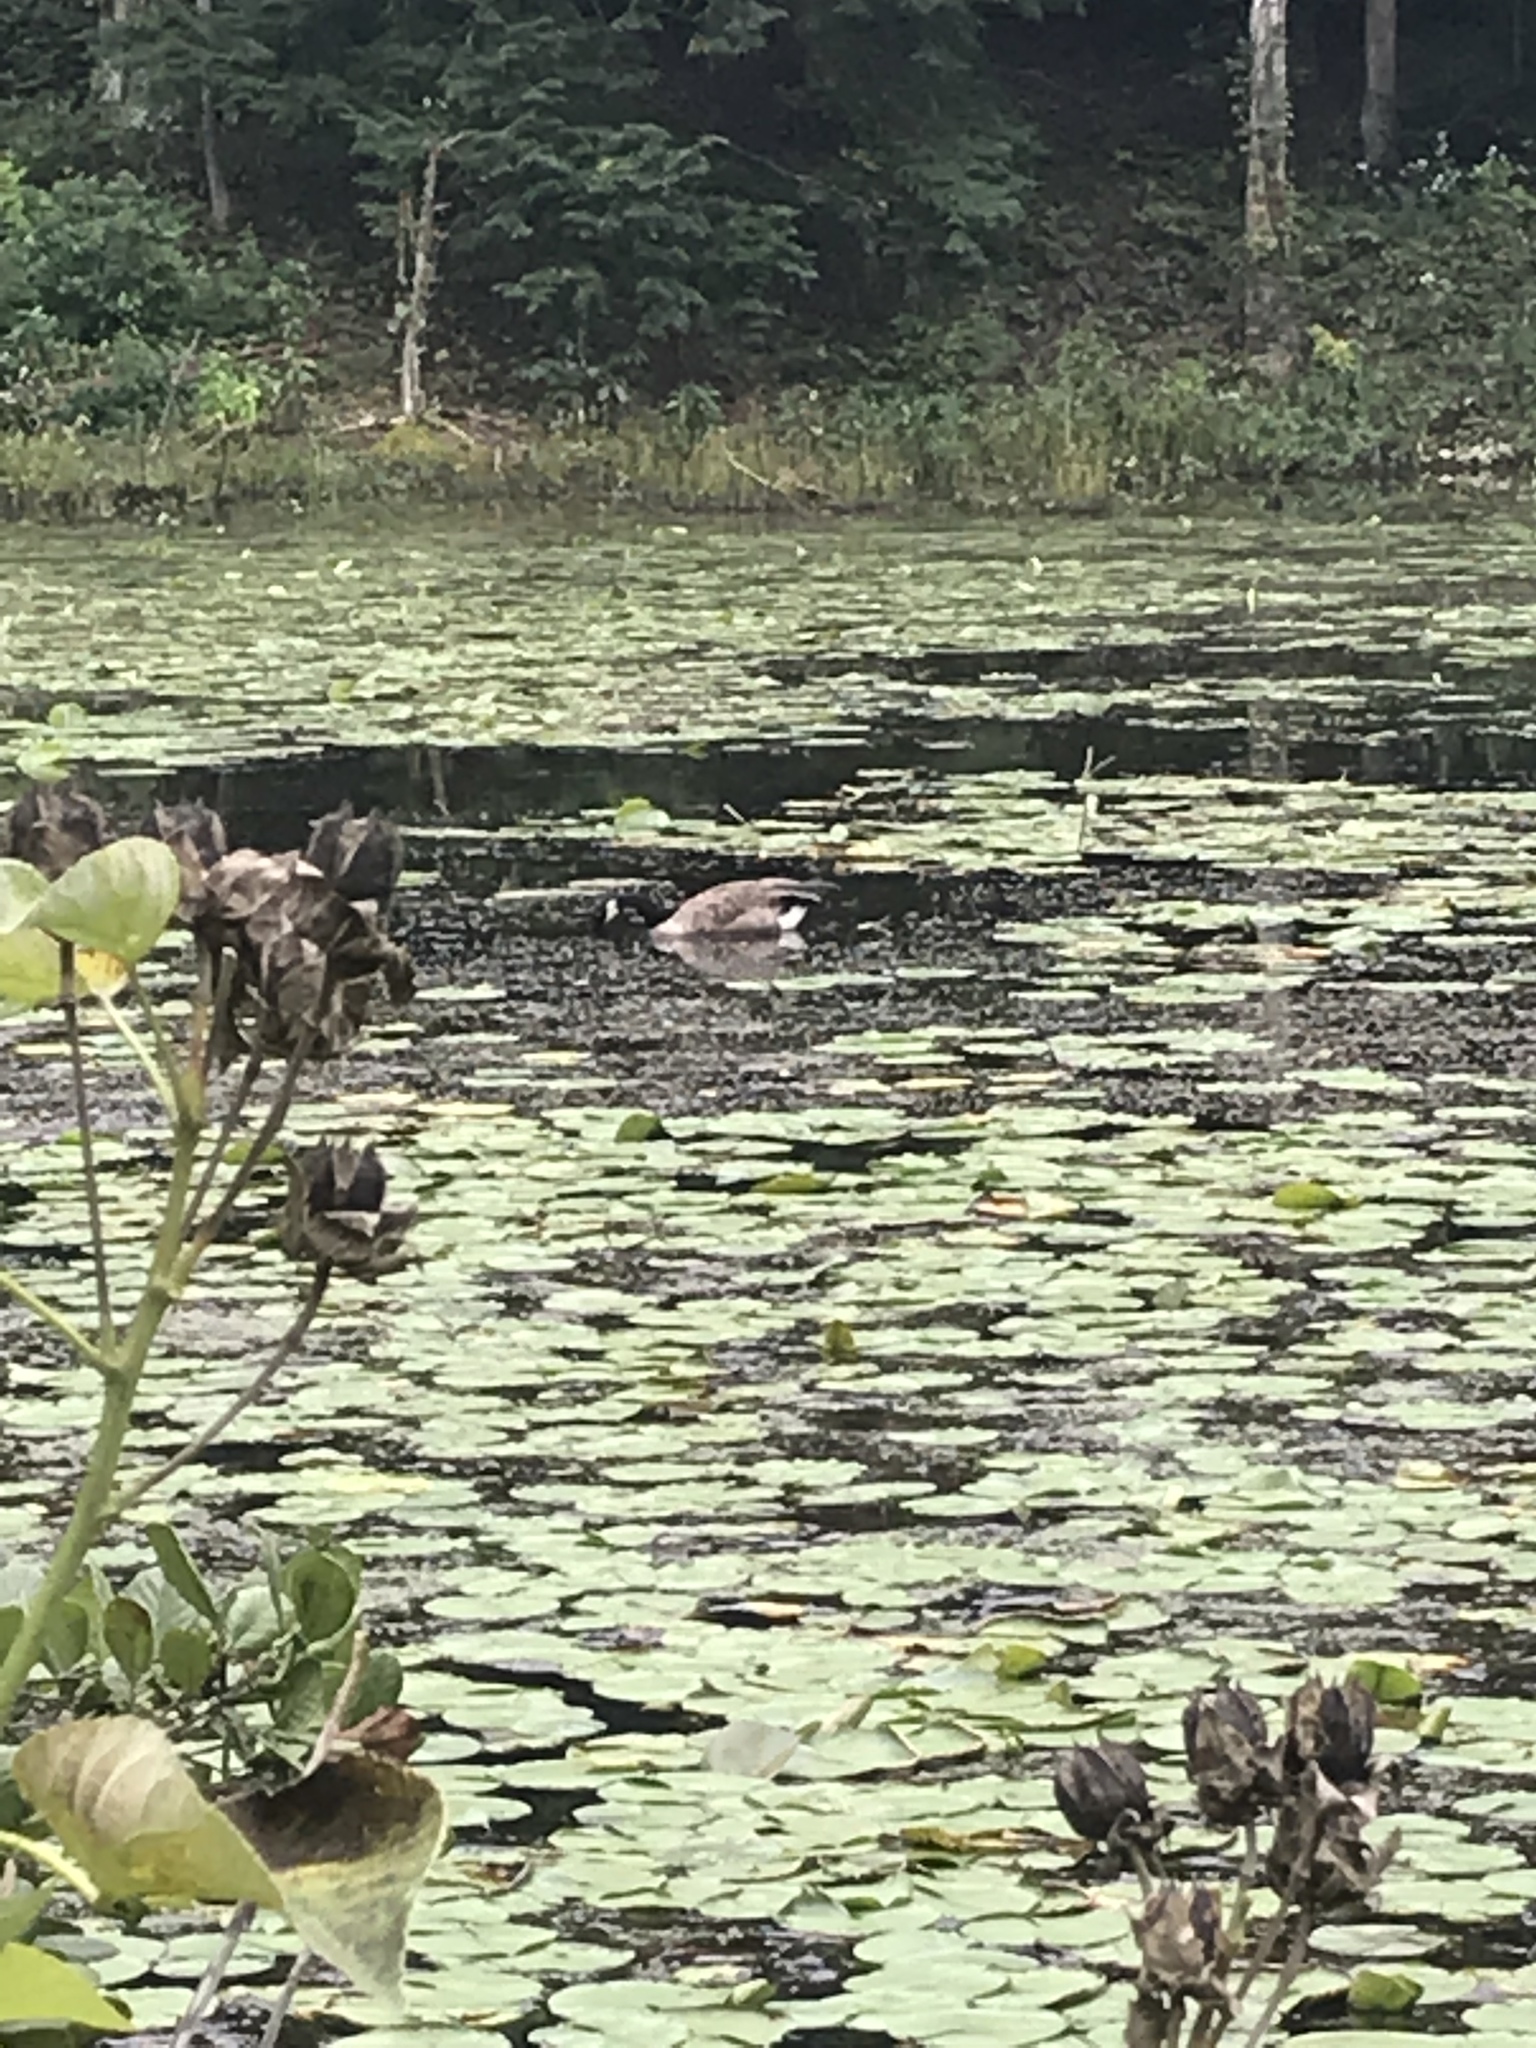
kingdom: Animalia
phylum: Chordata
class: Aves
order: Anseriformes
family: Anatidae
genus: Branta
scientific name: Branta canadensis
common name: Canada goose
